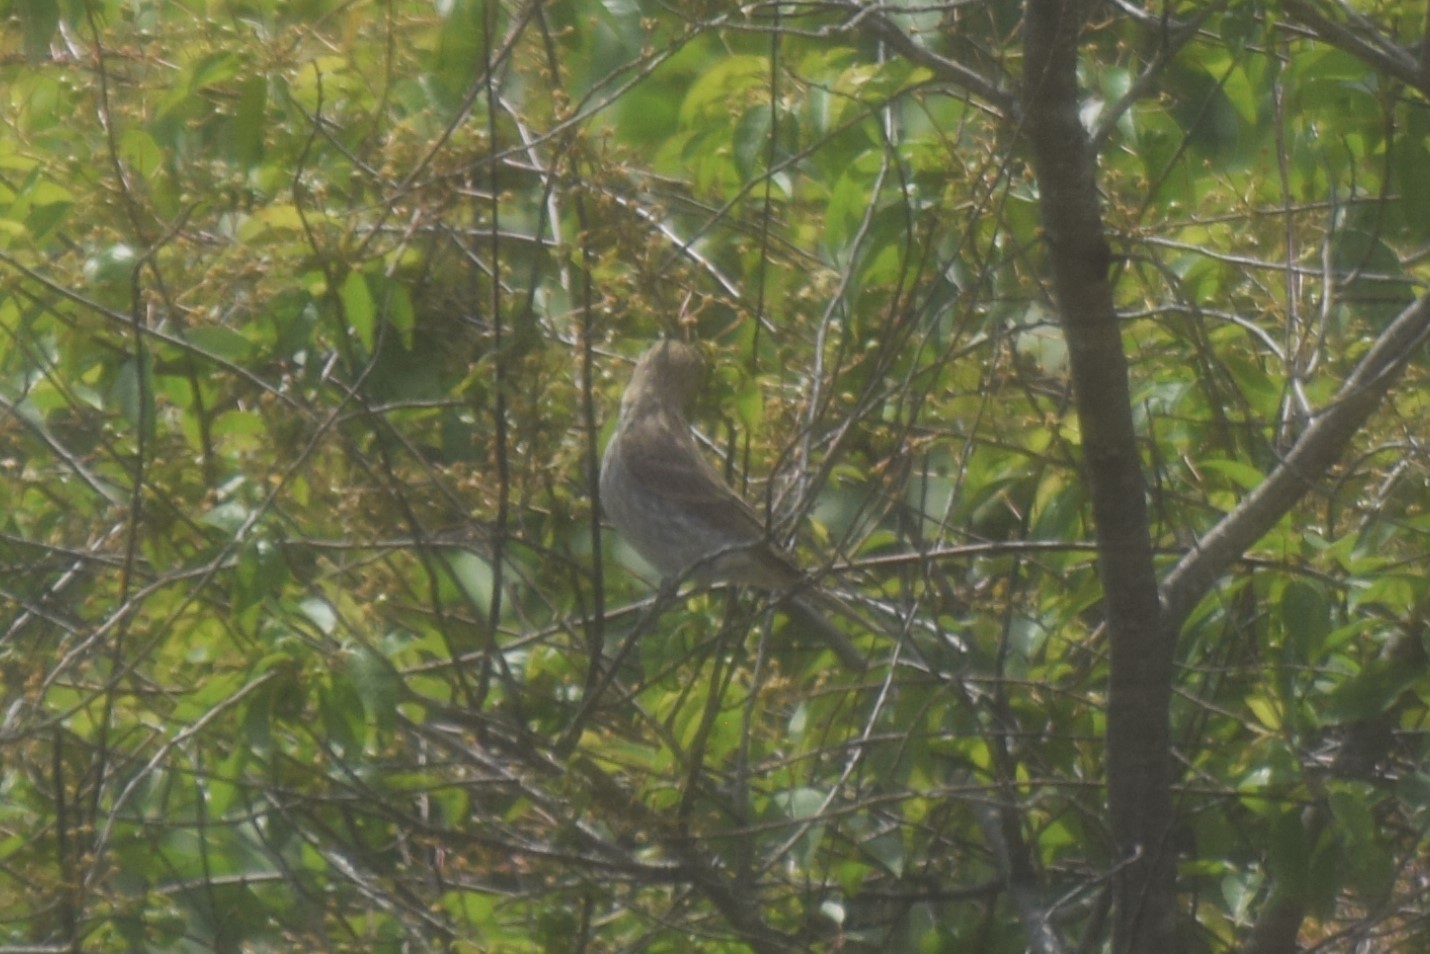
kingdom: Animalia
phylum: Chordata
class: Aves
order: Passeriformes
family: Fringillidae
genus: Haemorhous
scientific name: Haemorhous mexicanus
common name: House finch
